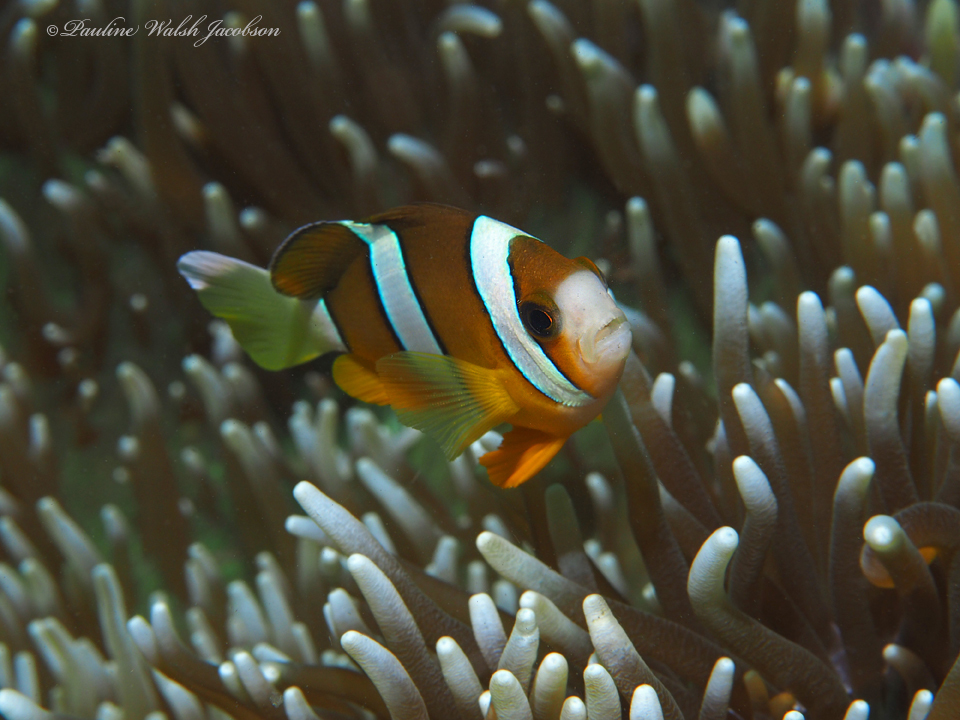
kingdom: Animalia
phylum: Chordata
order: Perciformes
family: Pomacentridae
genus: Amphiprion
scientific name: Amphiprion clarkii
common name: Clark's anemonefish
